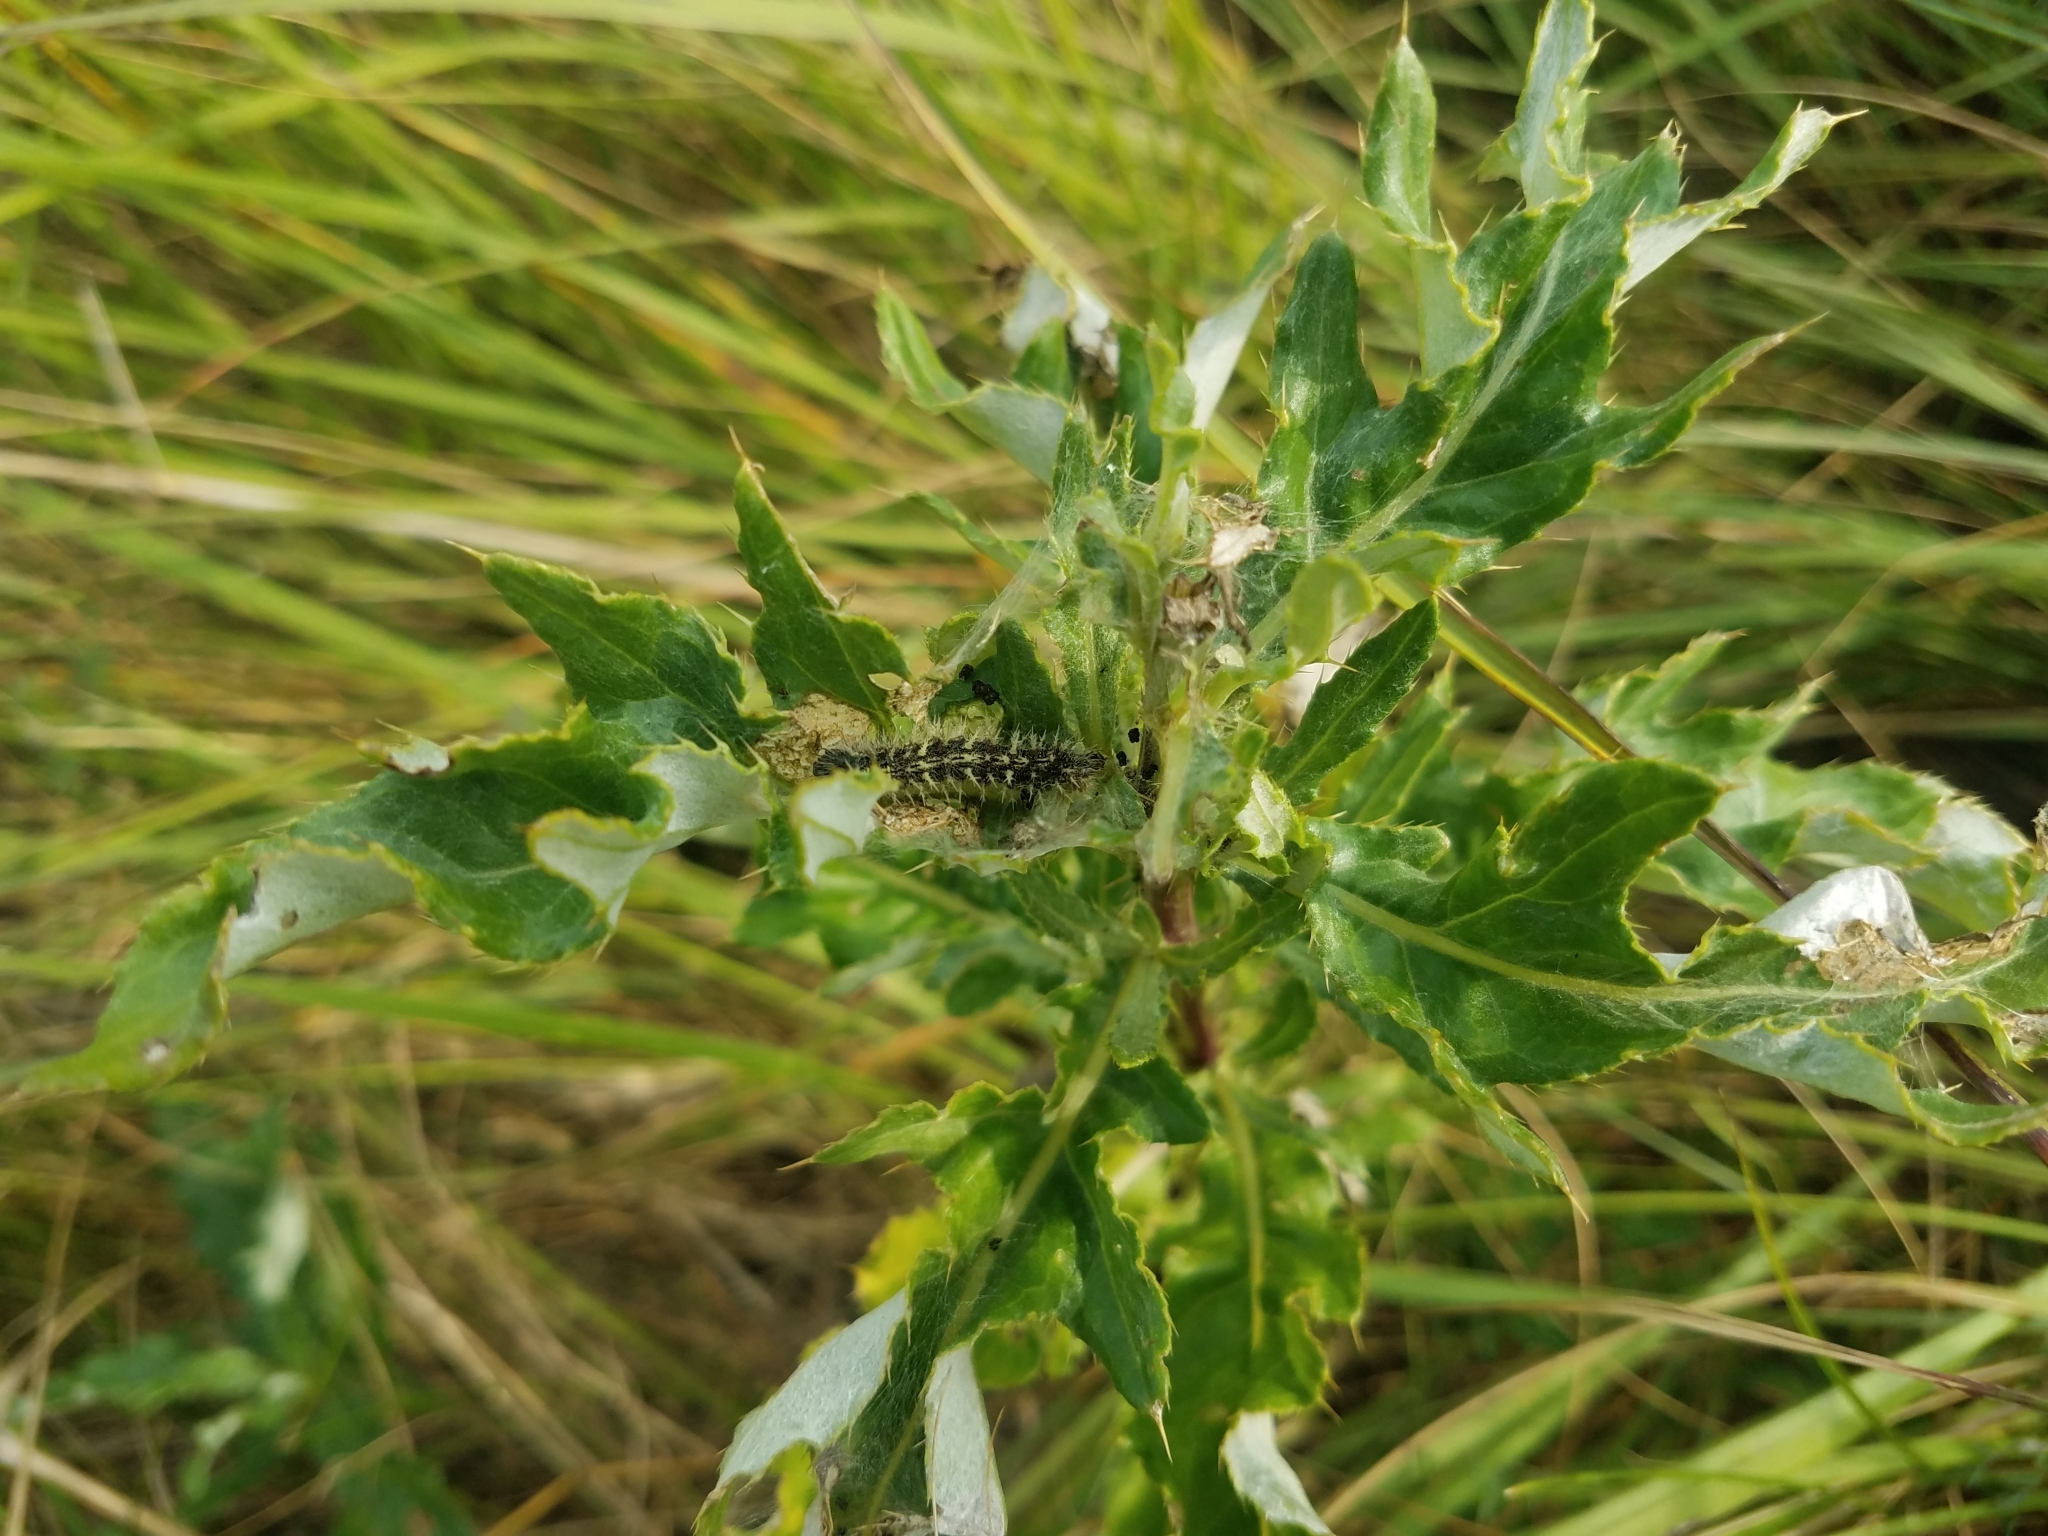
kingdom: Animalia
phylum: Arthropoda
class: Insecta
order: Lepidoptera
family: Nymphalidae
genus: Vanessa
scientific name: Vanessa cardui
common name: Painted lady
